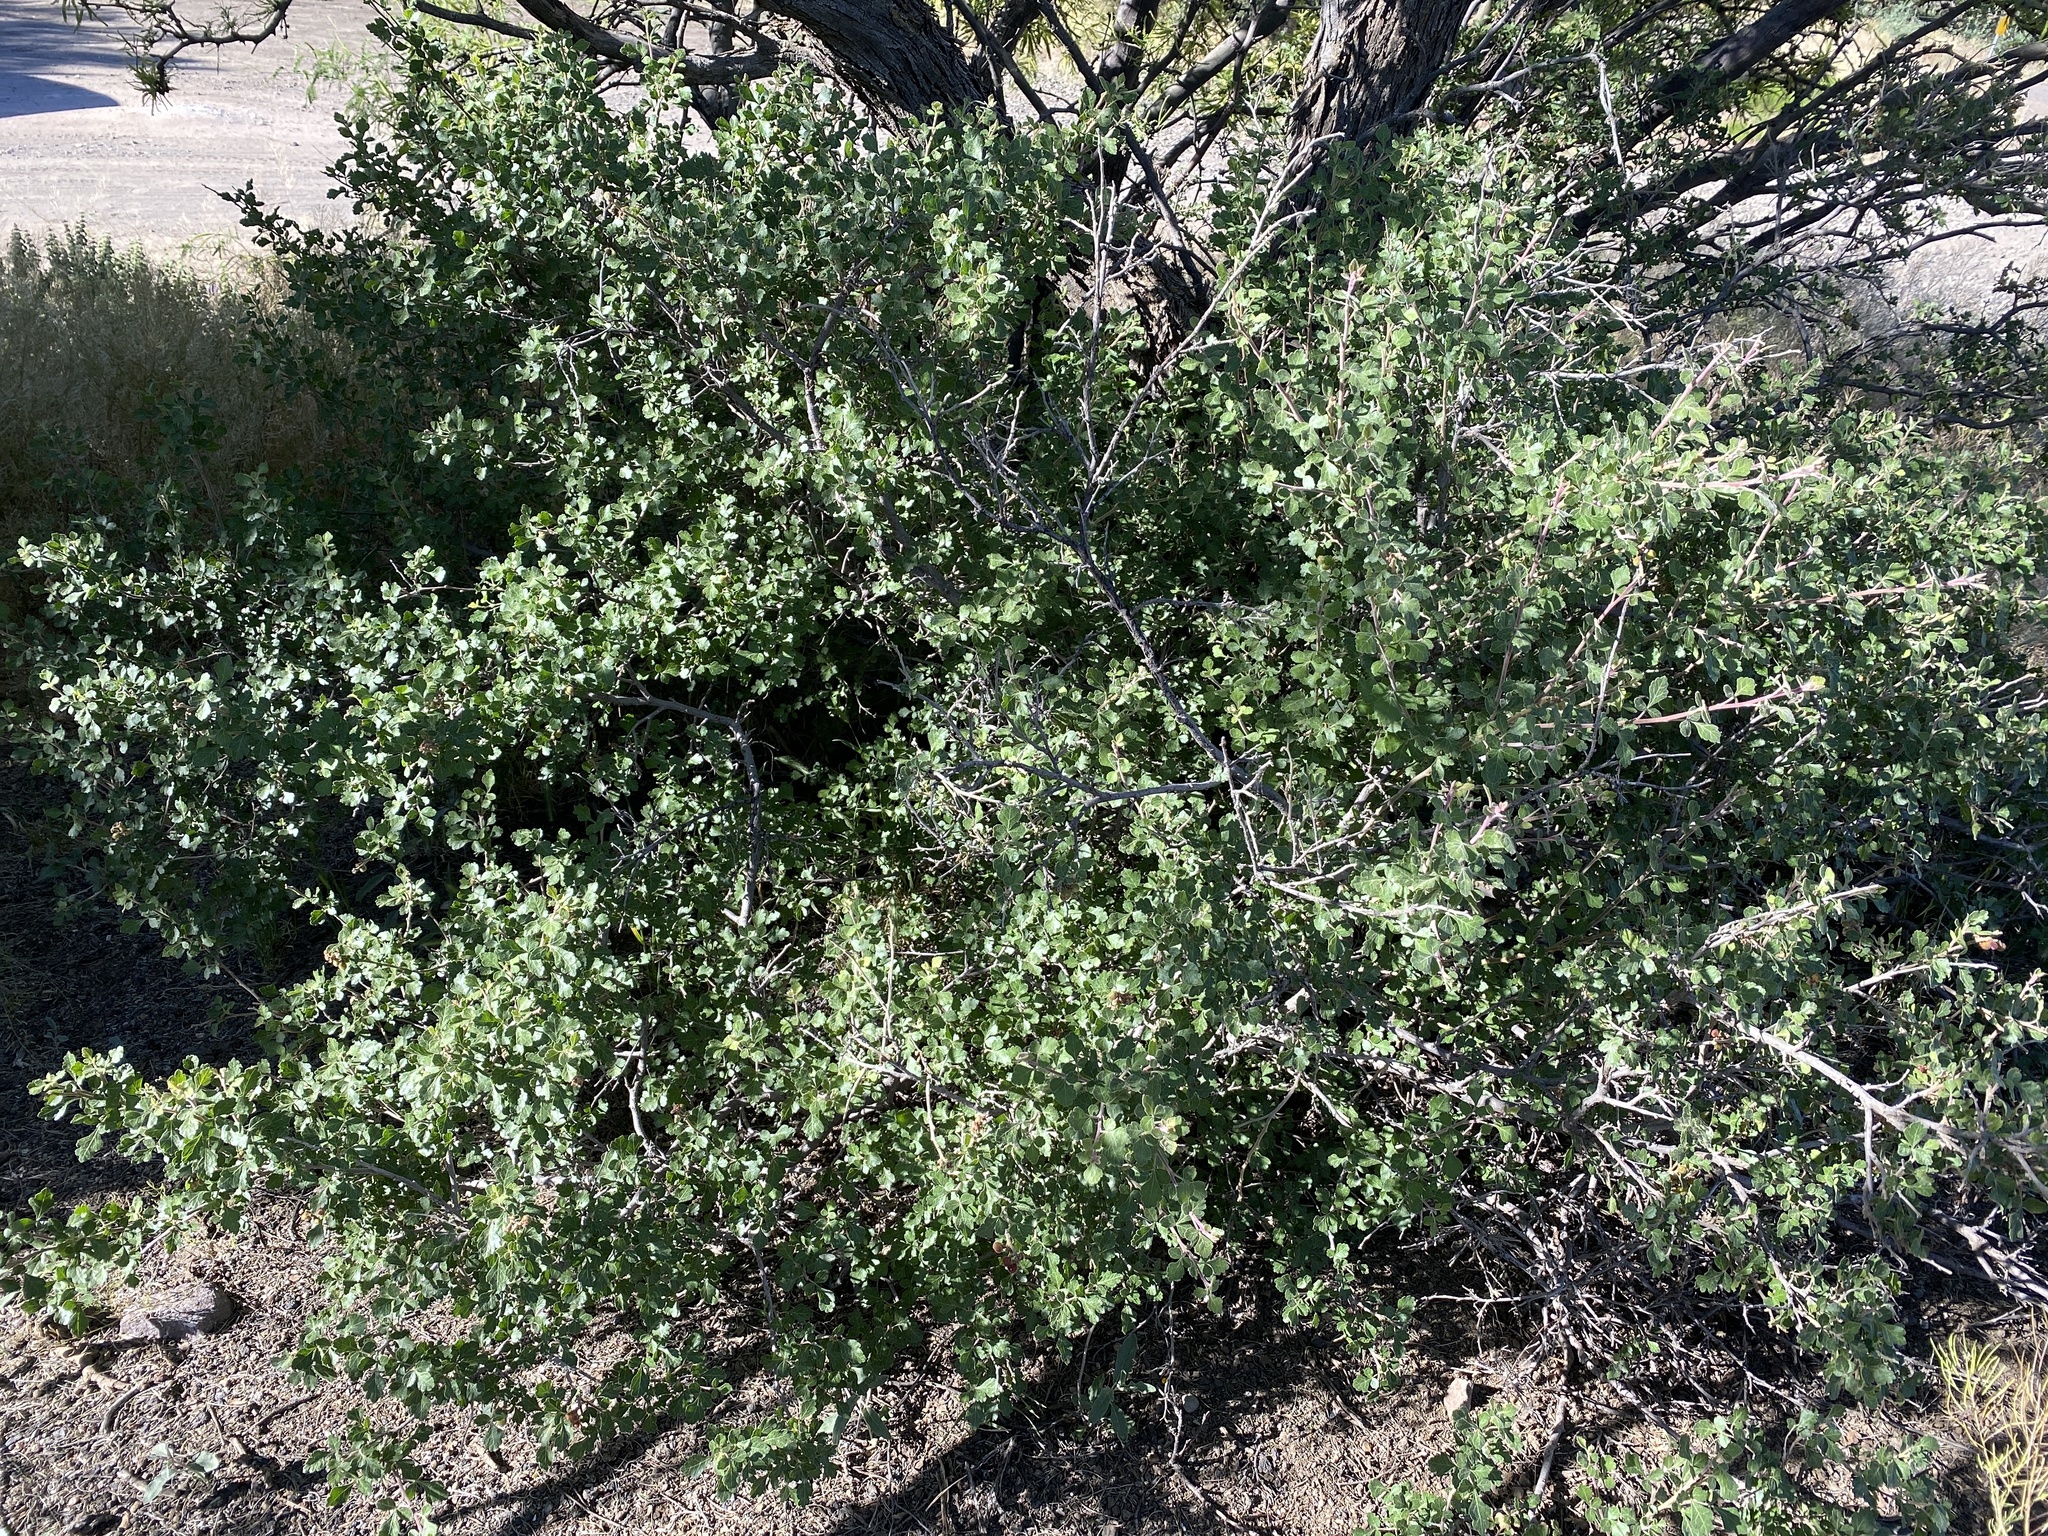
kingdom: Plantae
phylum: Tracheophyta
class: Magnoliopsida
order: Sapindales
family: Anacardiaceae
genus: Rhus
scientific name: Rhus aromatica
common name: Aromatic sumac
